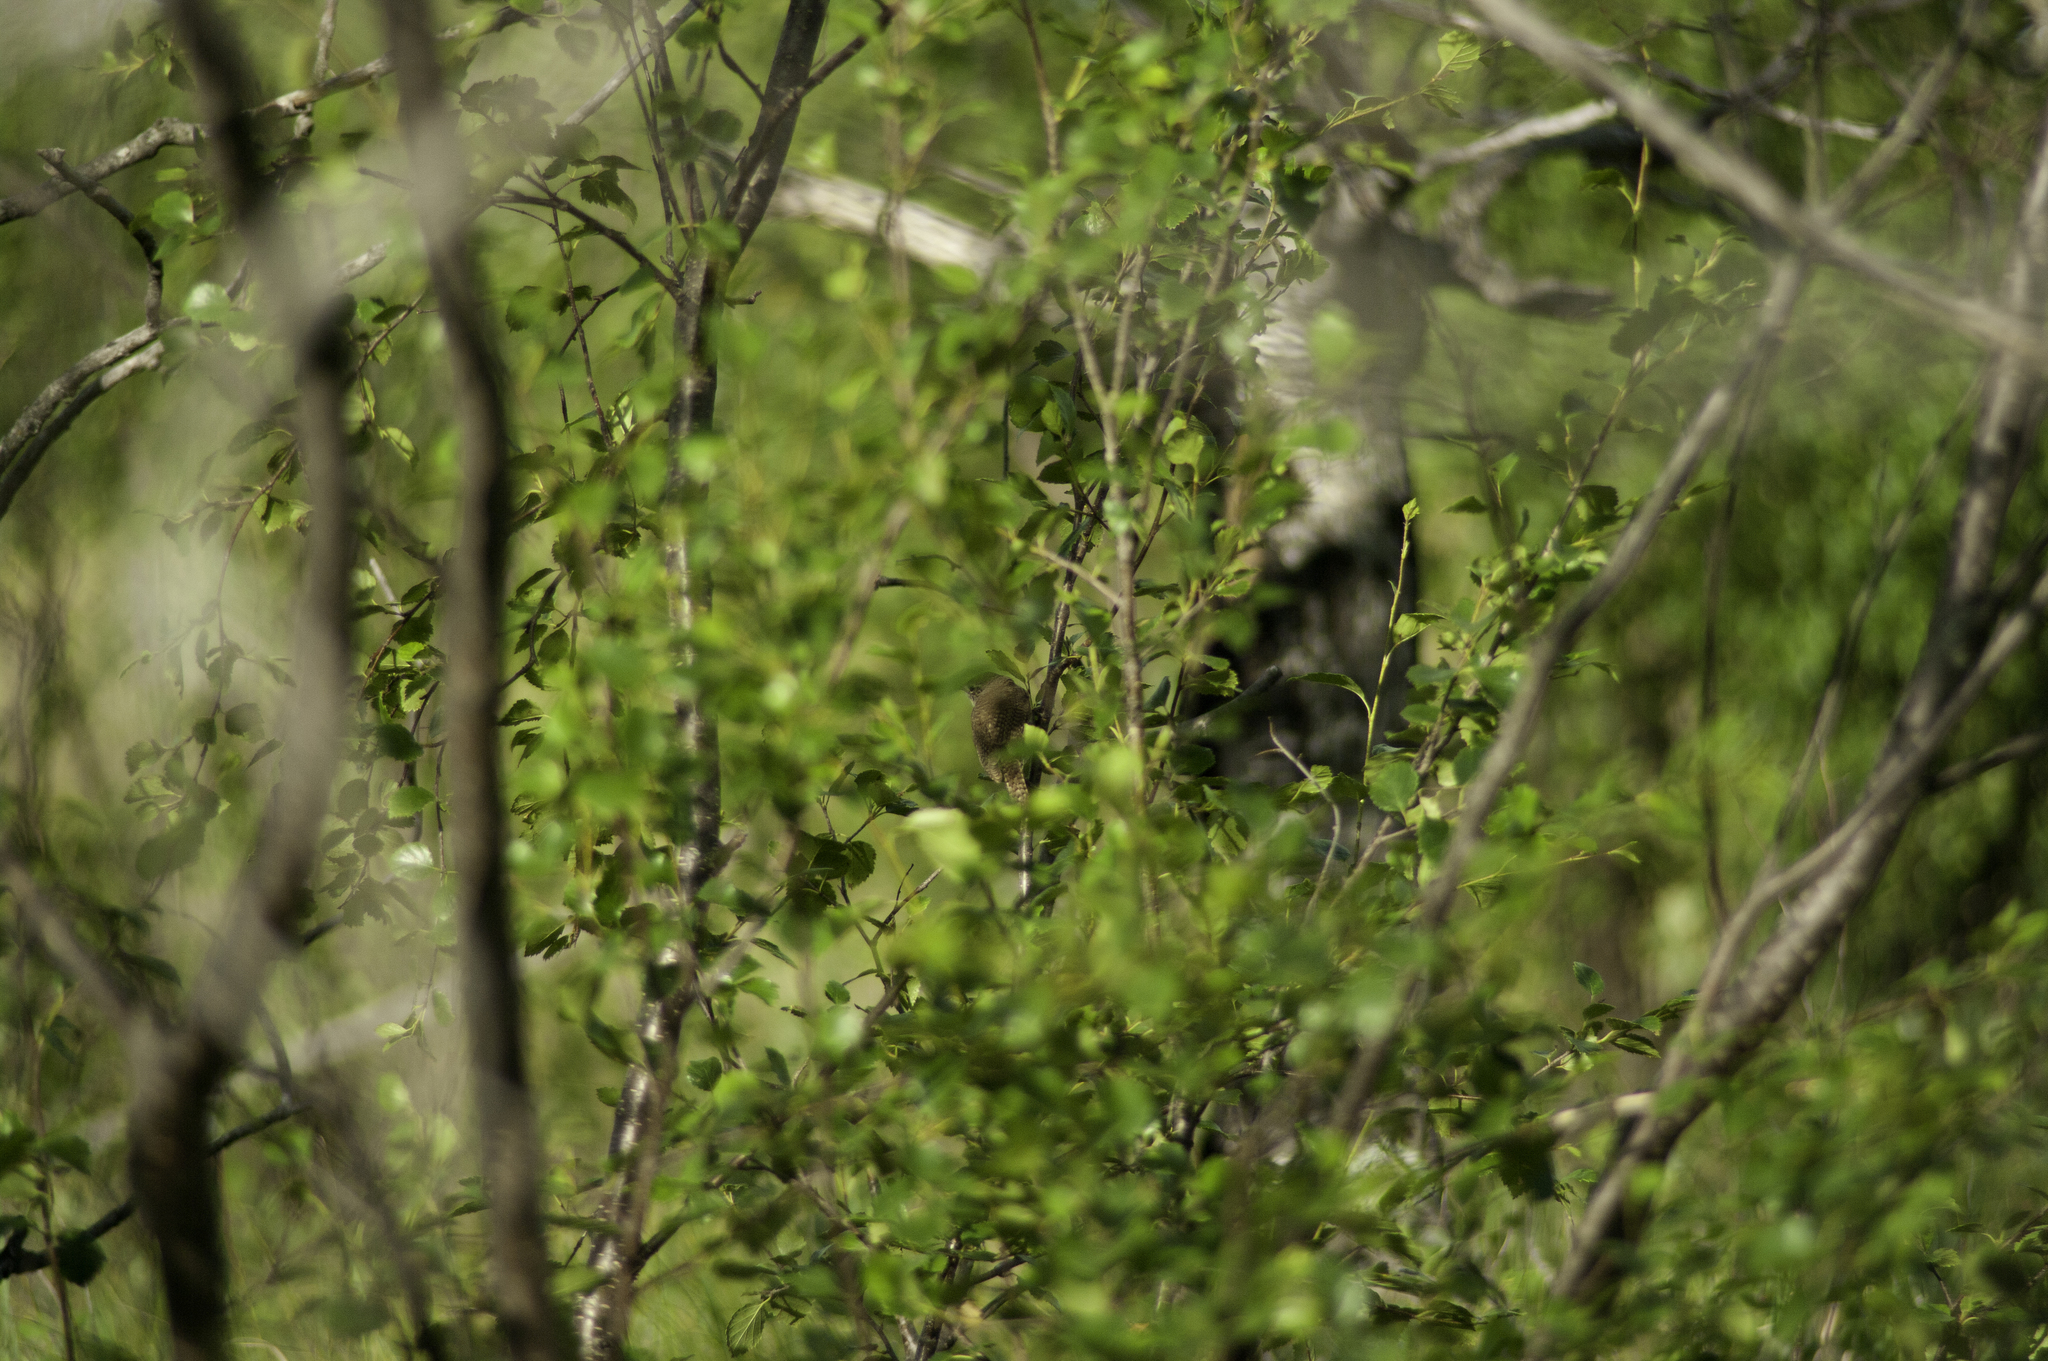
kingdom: Animalia
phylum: Chordata
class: Aves
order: Passeriformes
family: Troglodytidae
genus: Troglodytes
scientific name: Troglodytes aedon
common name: House wren
